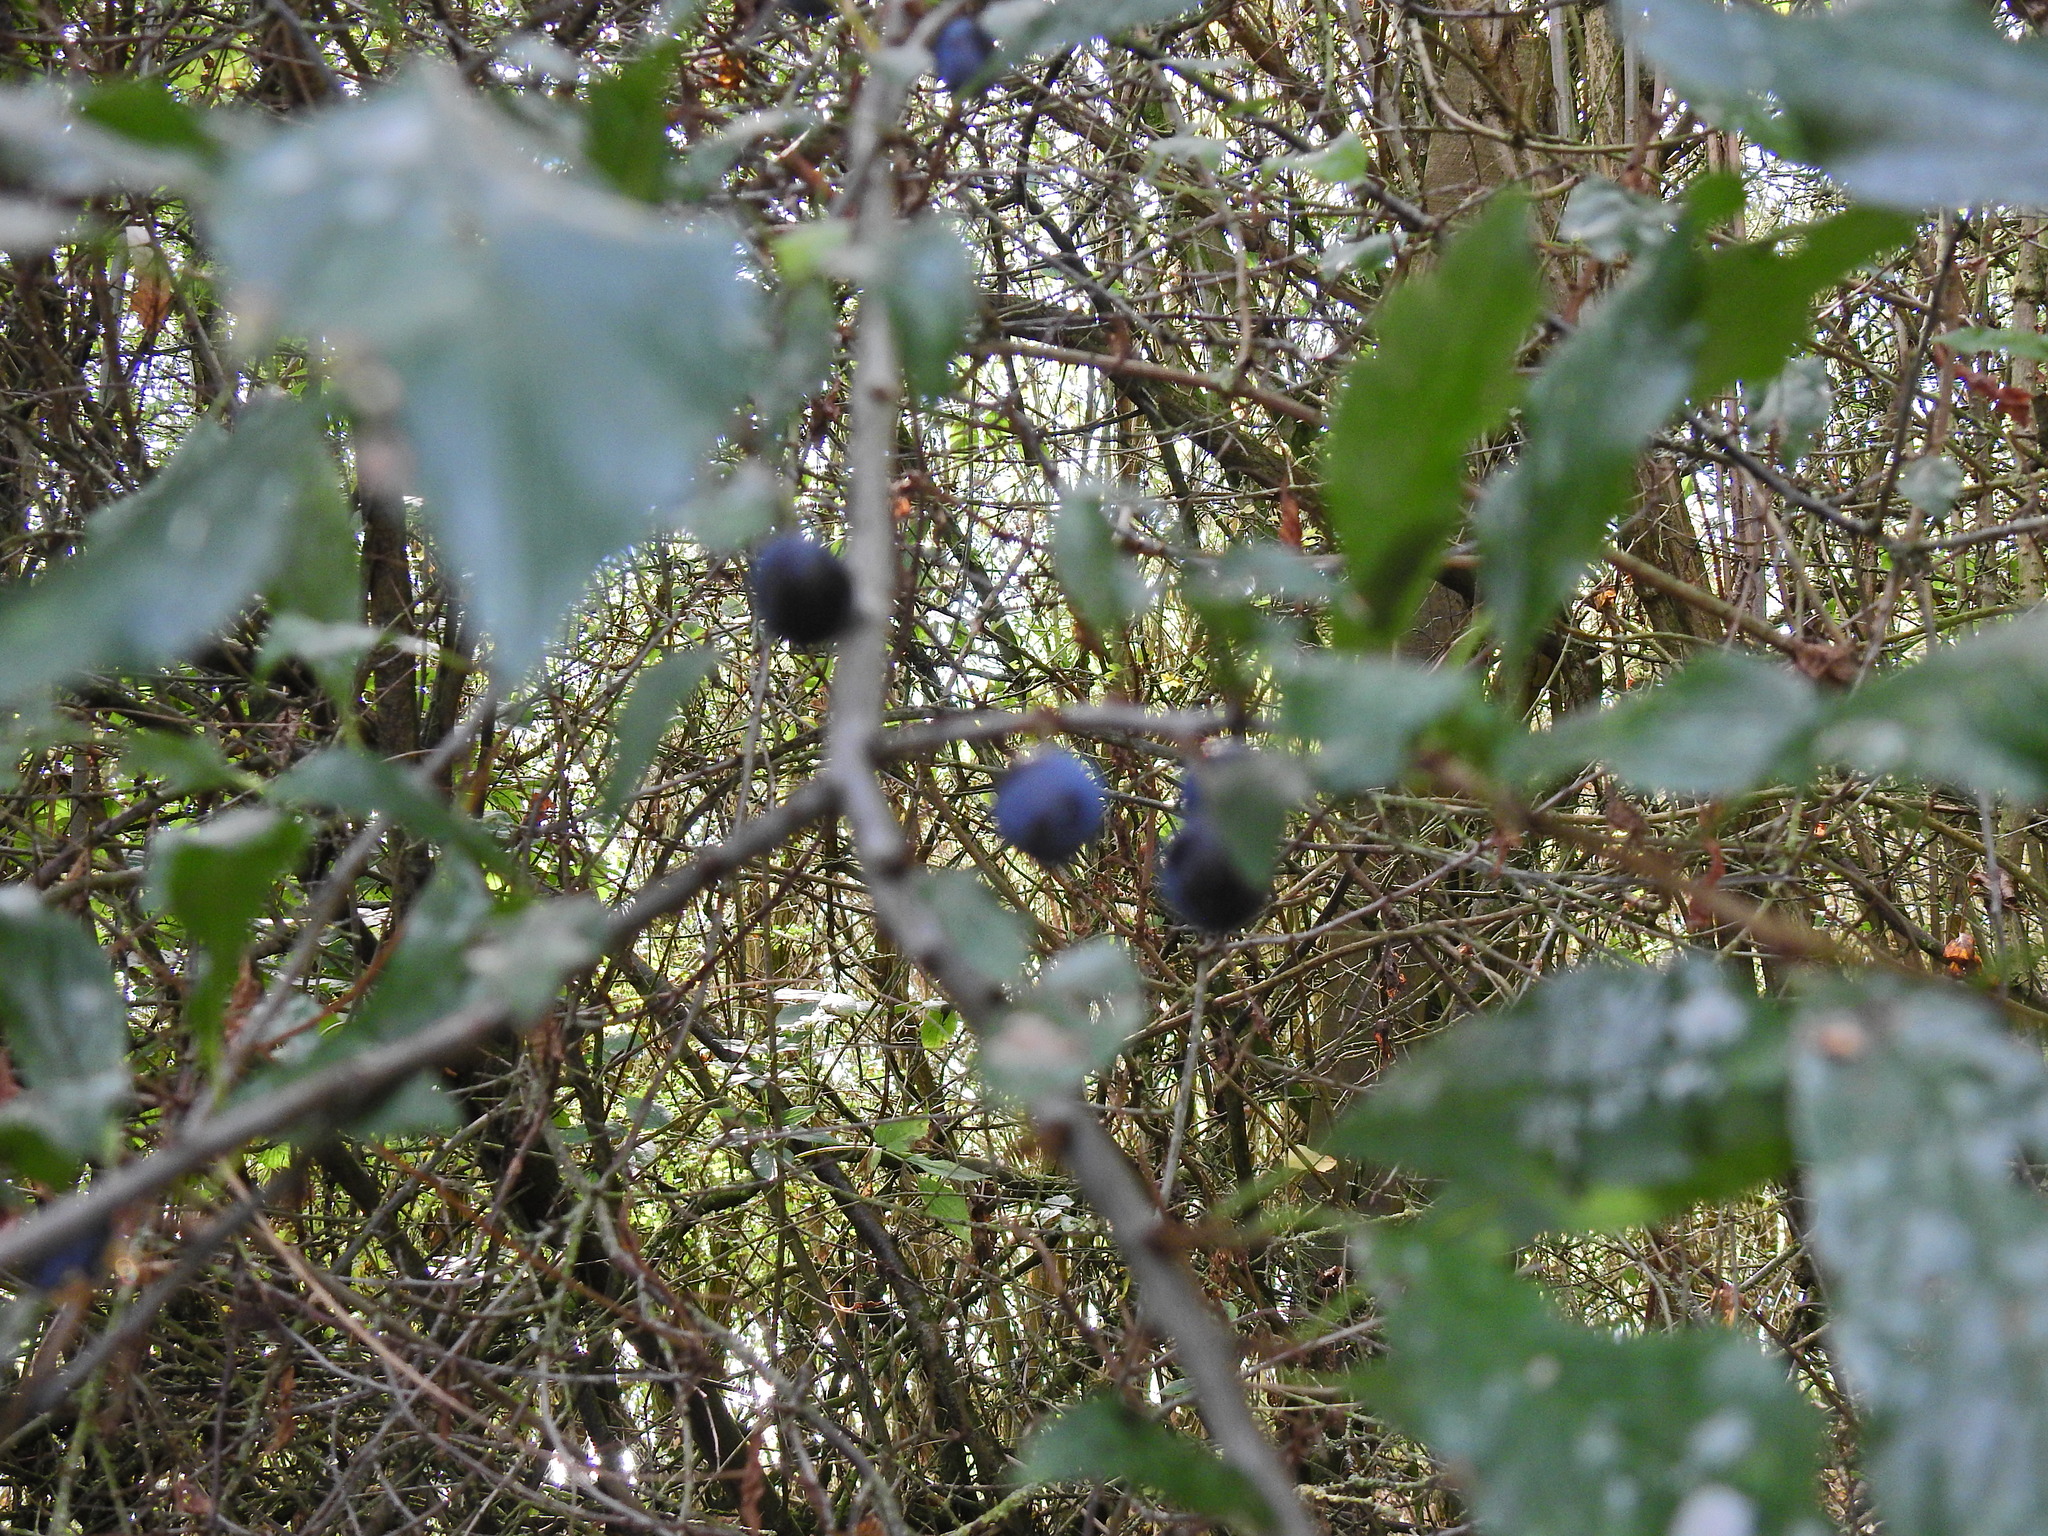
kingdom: Plantae
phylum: Tracheophyta
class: Magnoliopsida
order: Rosales
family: Rosaceae
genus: Prunus
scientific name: Prunus spinosa
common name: Blackthorn
